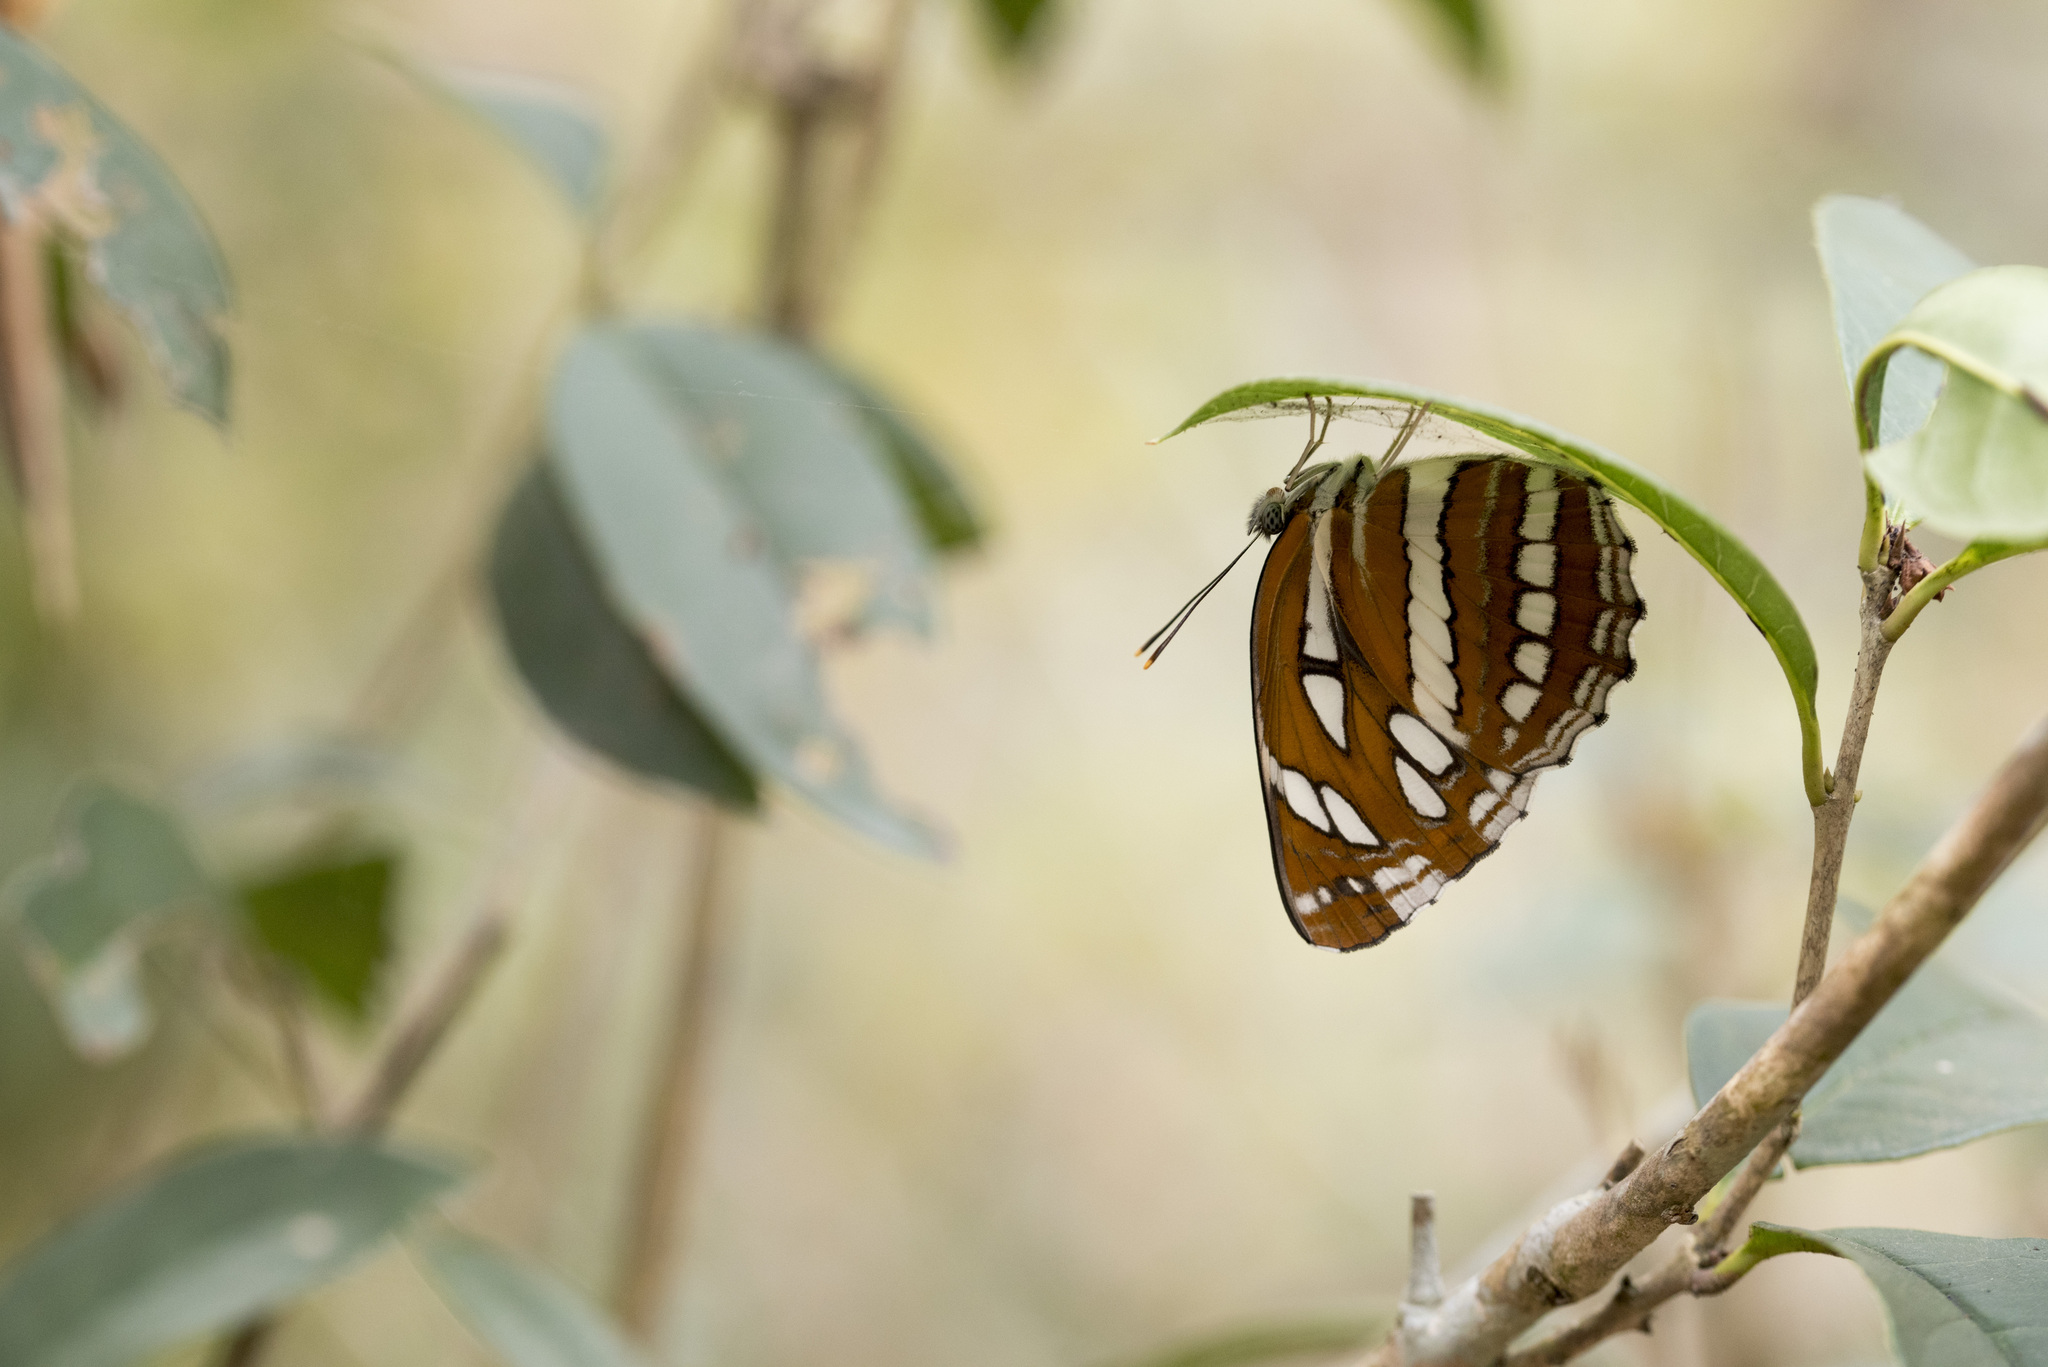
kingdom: Animalia
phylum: Arthropoda
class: Insecta
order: Lepidoptera
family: Nymphalidae
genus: Neptis
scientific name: Neptis hylas
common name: Common sailer
